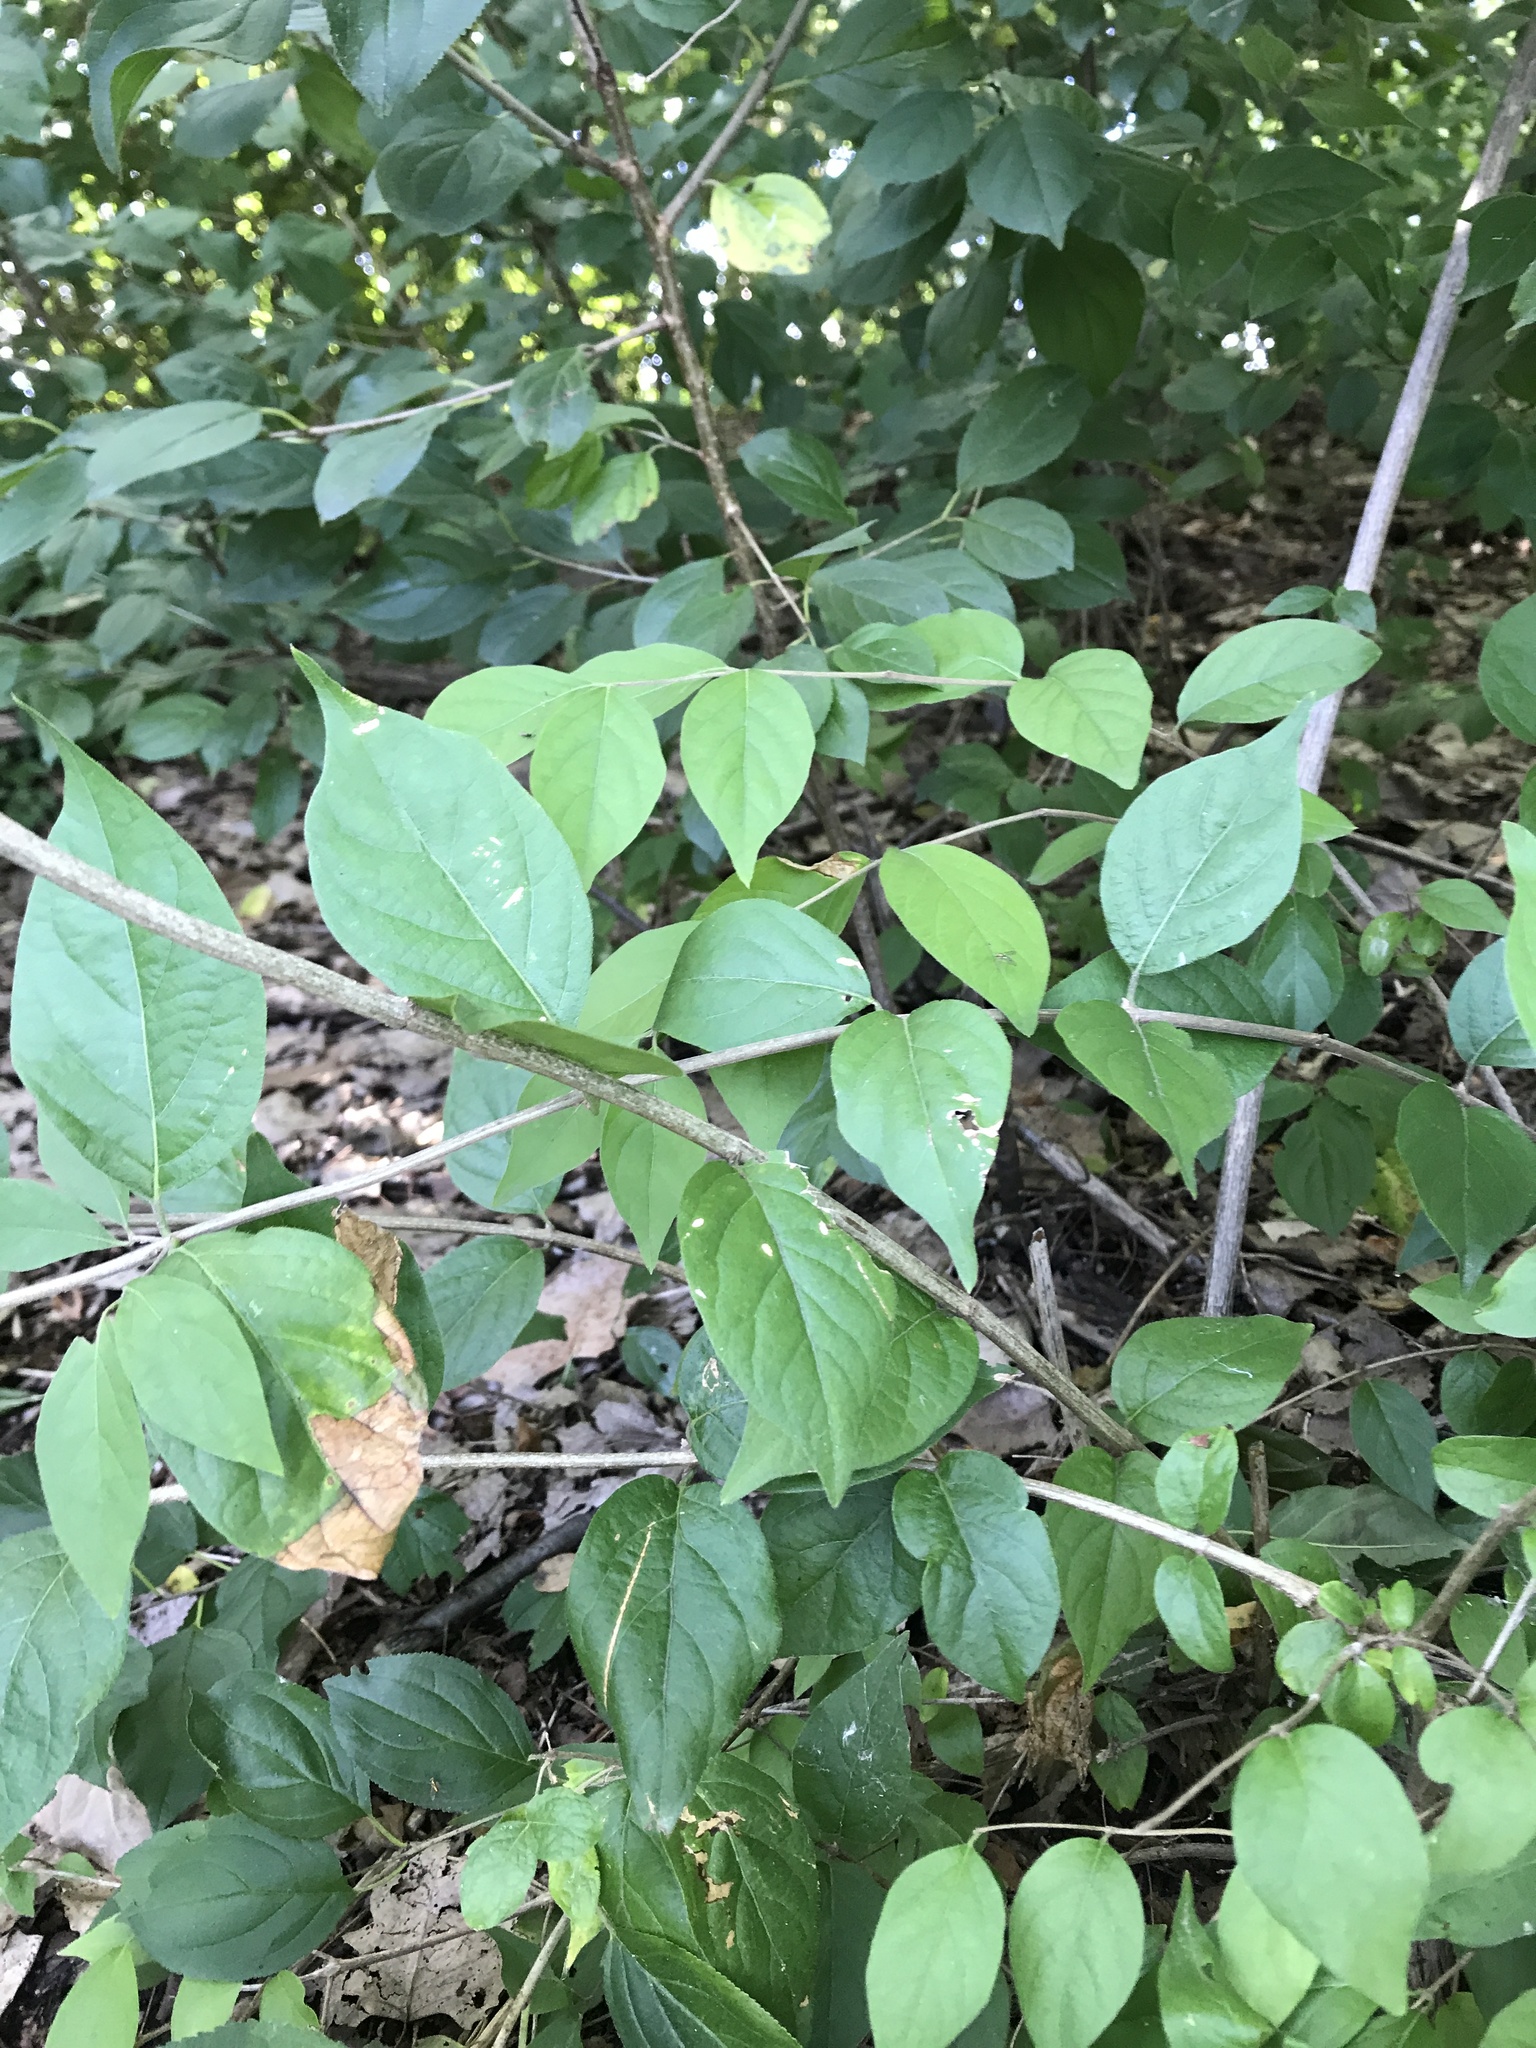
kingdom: Plantae
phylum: Tracheophyta
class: Magnoliopsida
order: Dipsacales
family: Caprifoliaceae
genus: Lonicera
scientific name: Lonicera maackii
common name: Amur honeysuckle
